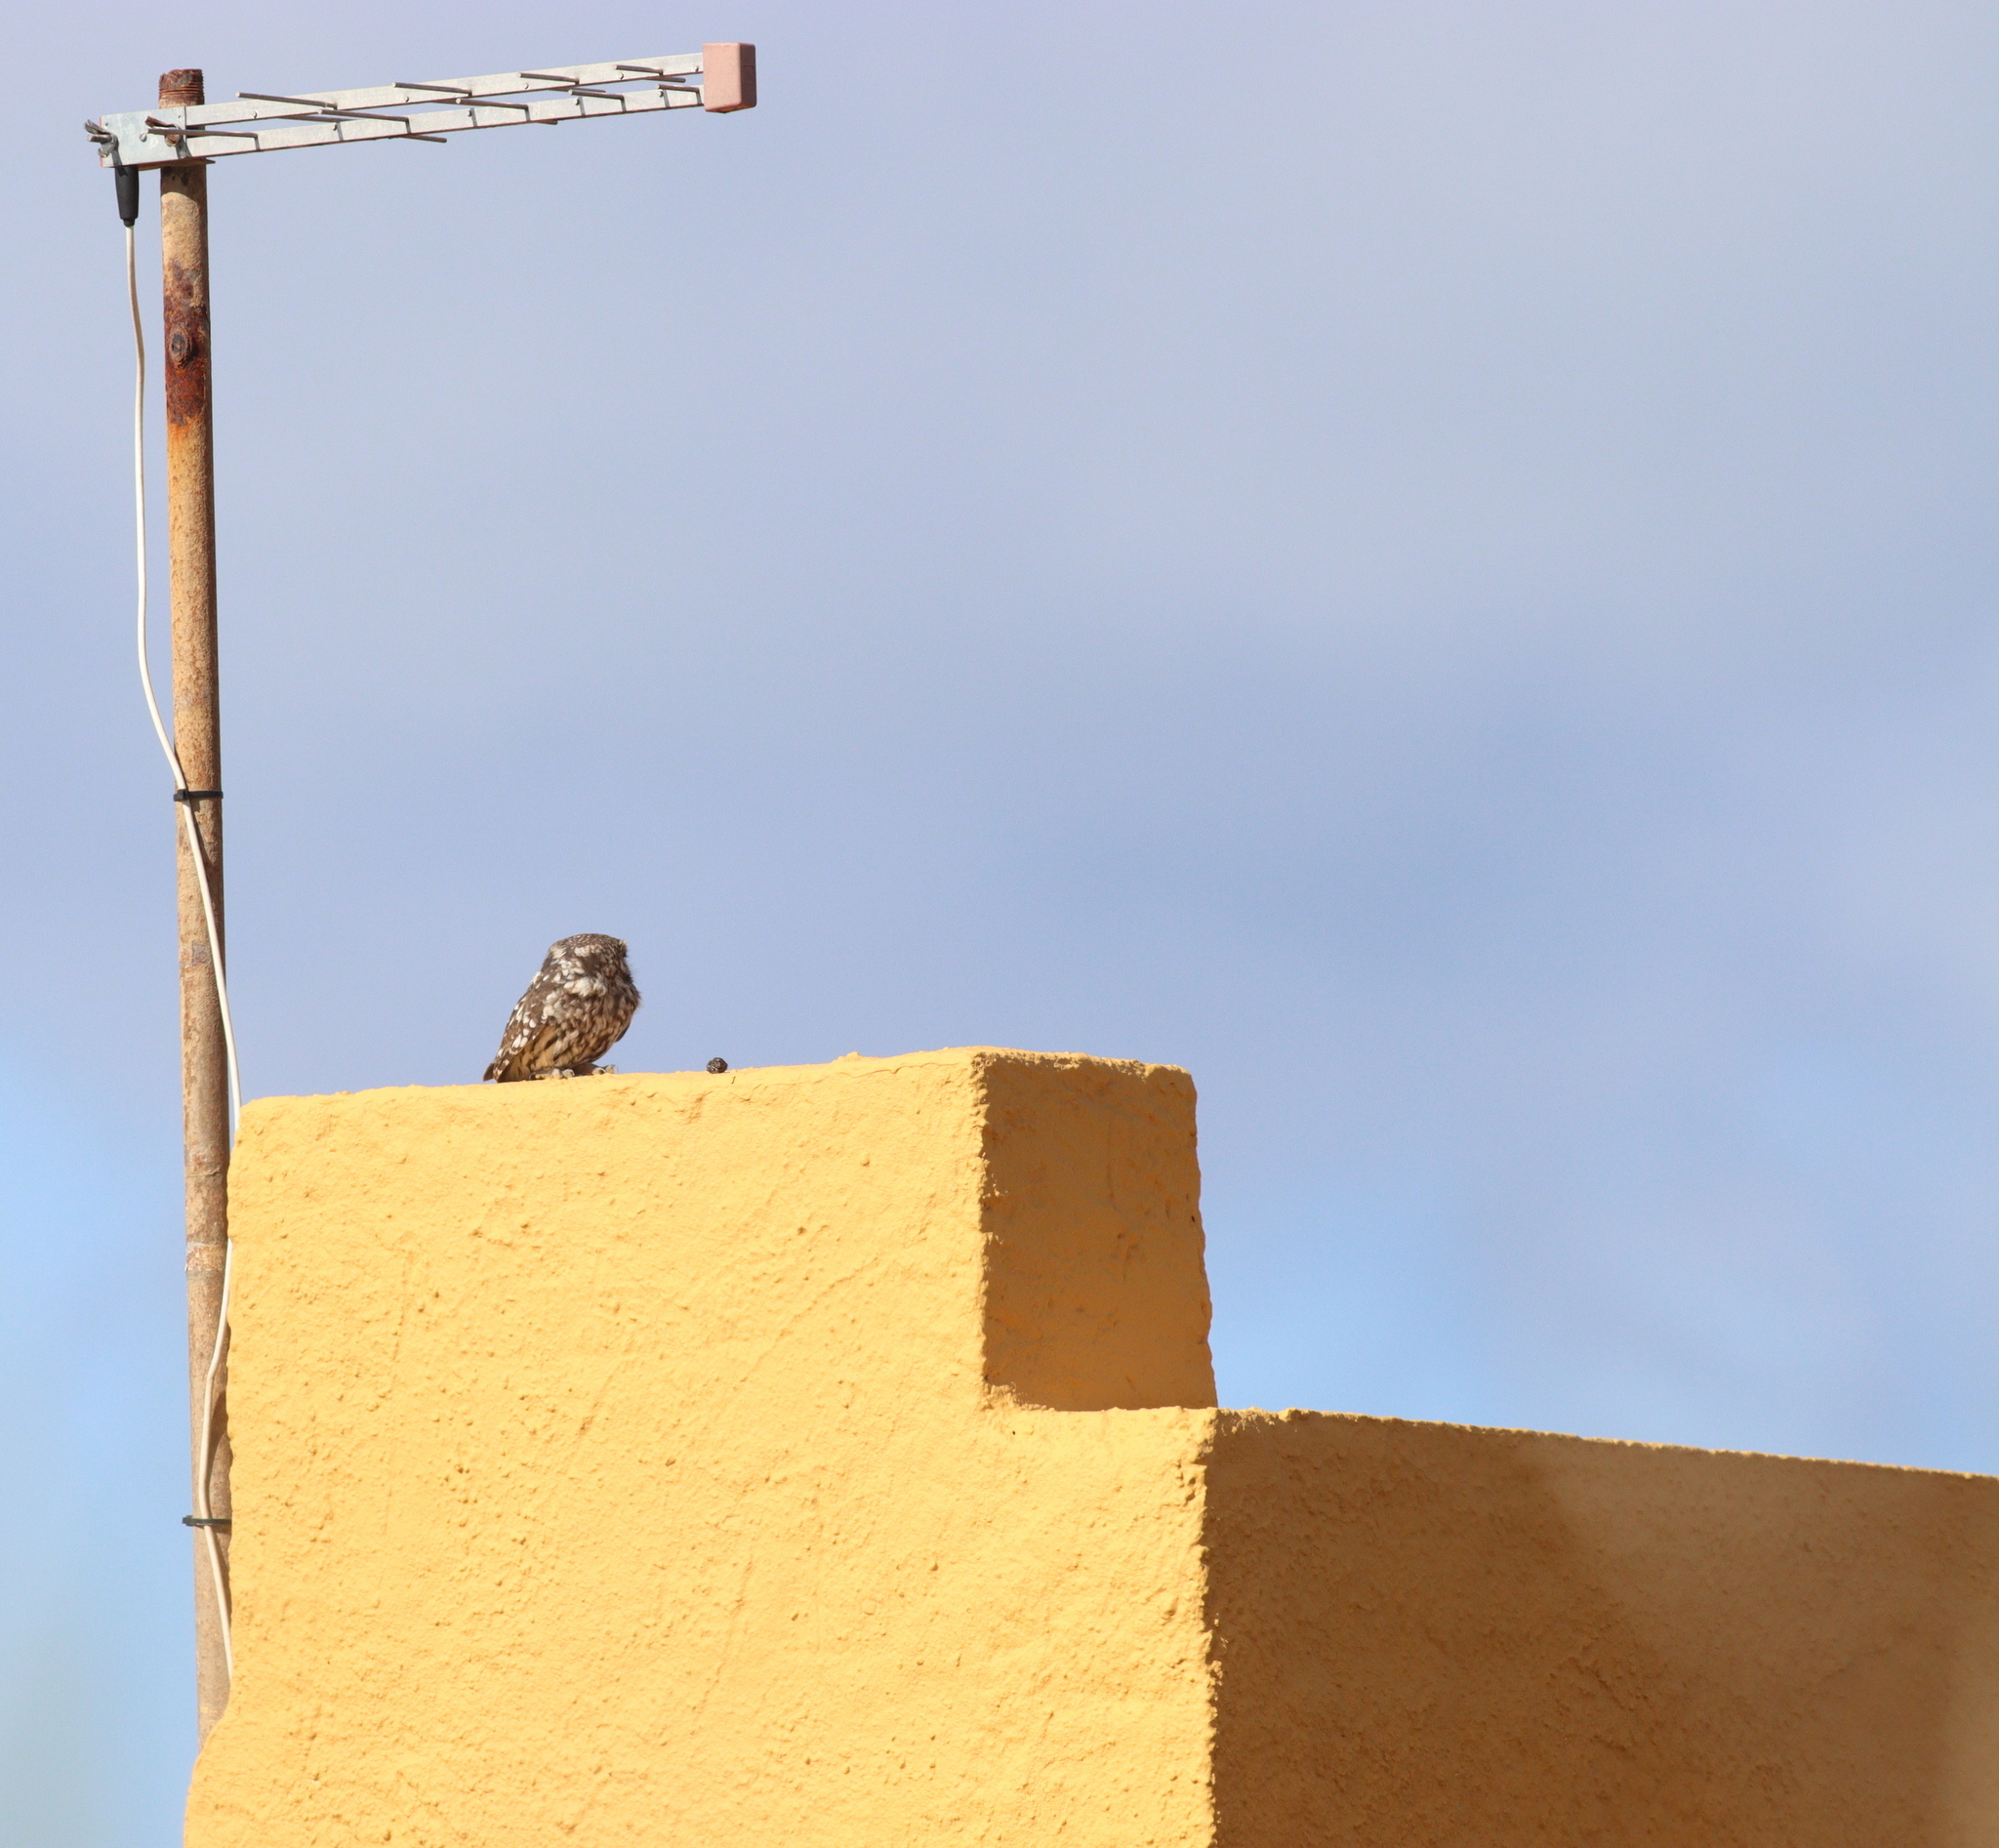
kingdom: Animalia
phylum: Chordata
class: Aves
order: Strigiformes
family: Strigidae
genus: Athene
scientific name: Athene noctua
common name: Little owl
